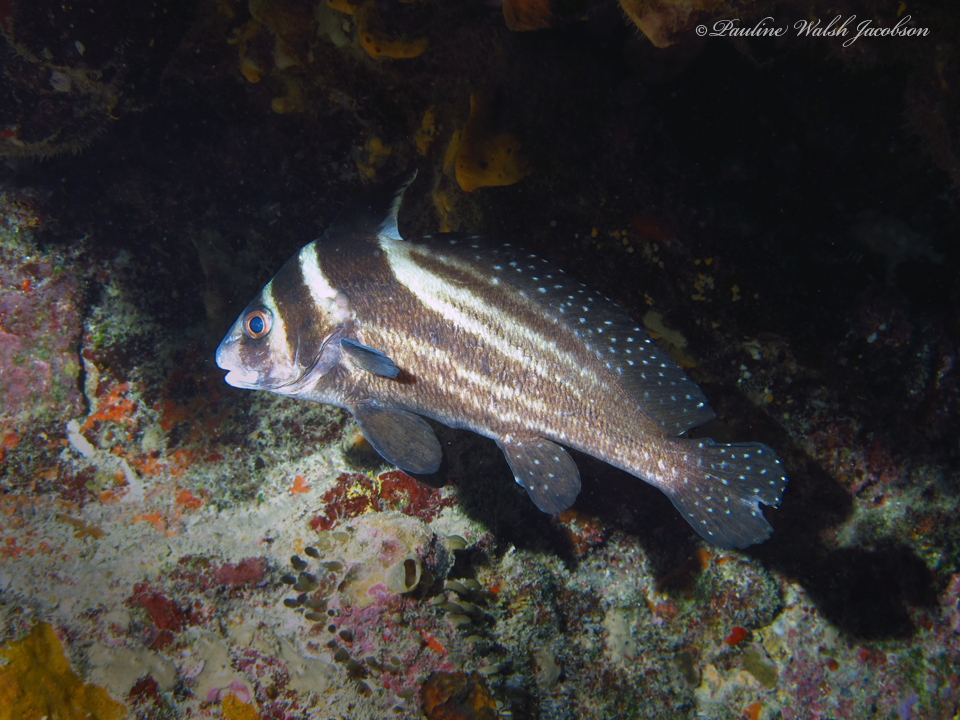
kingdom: Animalia
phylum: Chordata
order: Perciformes
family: Sciaenidae
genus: Equetus
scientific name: Equetus punctatus
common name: Spotted drum
